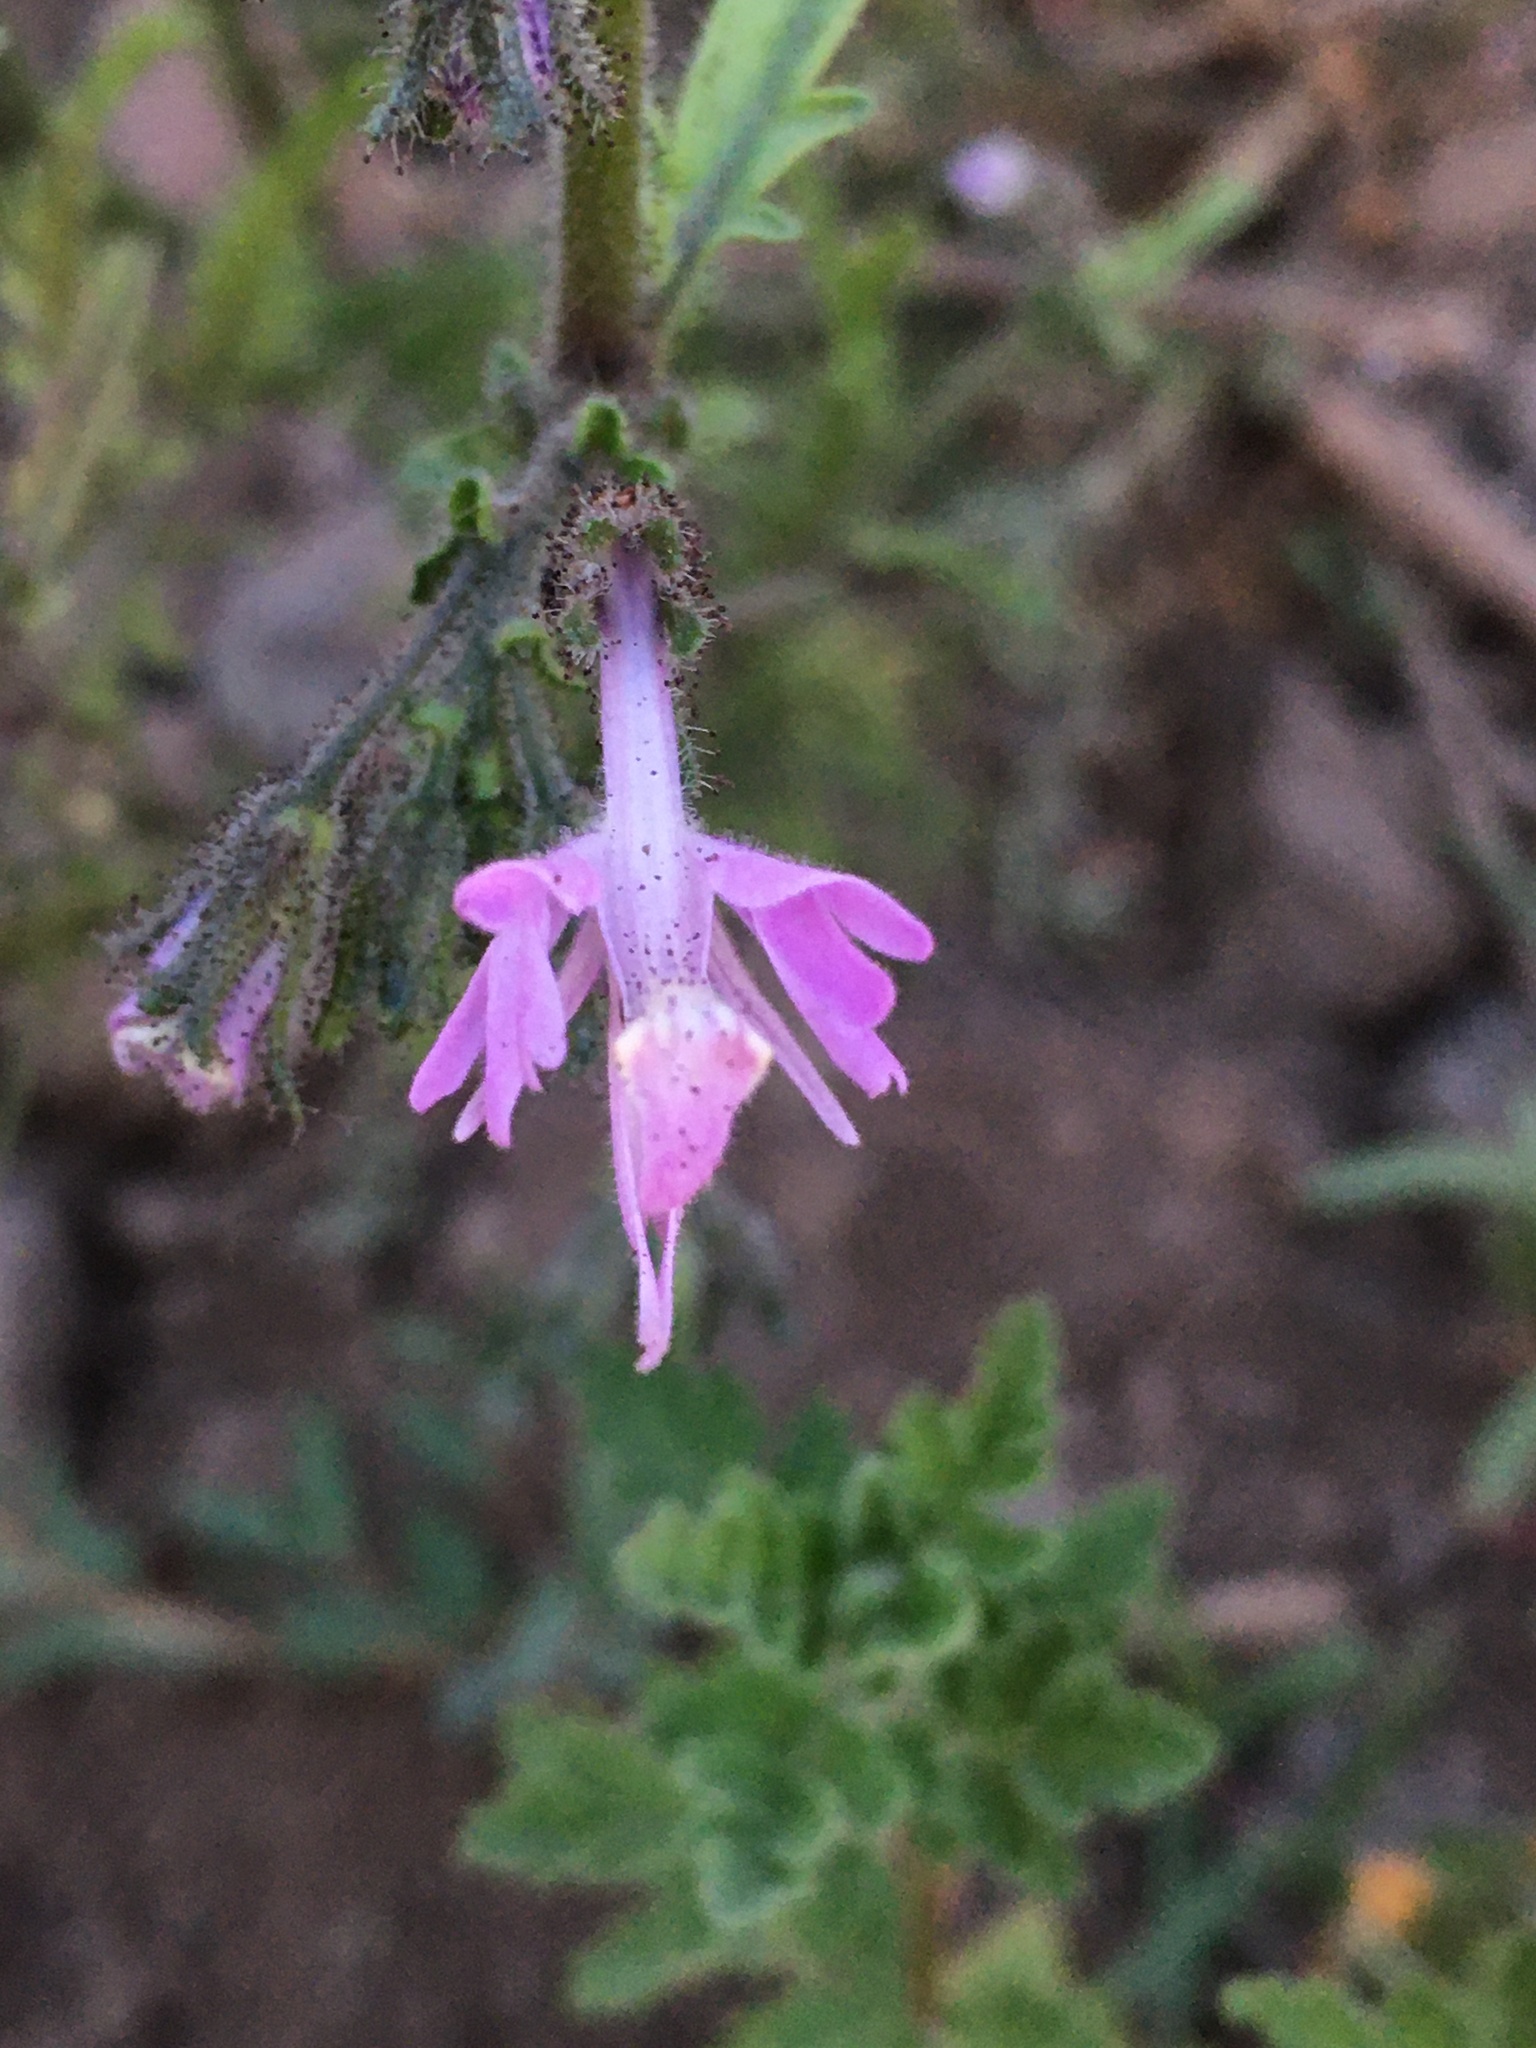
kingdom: Plantae
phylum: Tracheophyta
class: Magnoliopsida
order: Solanales
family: Solanaceae
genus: Schizanthus
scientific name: Schizanthus hookeri
